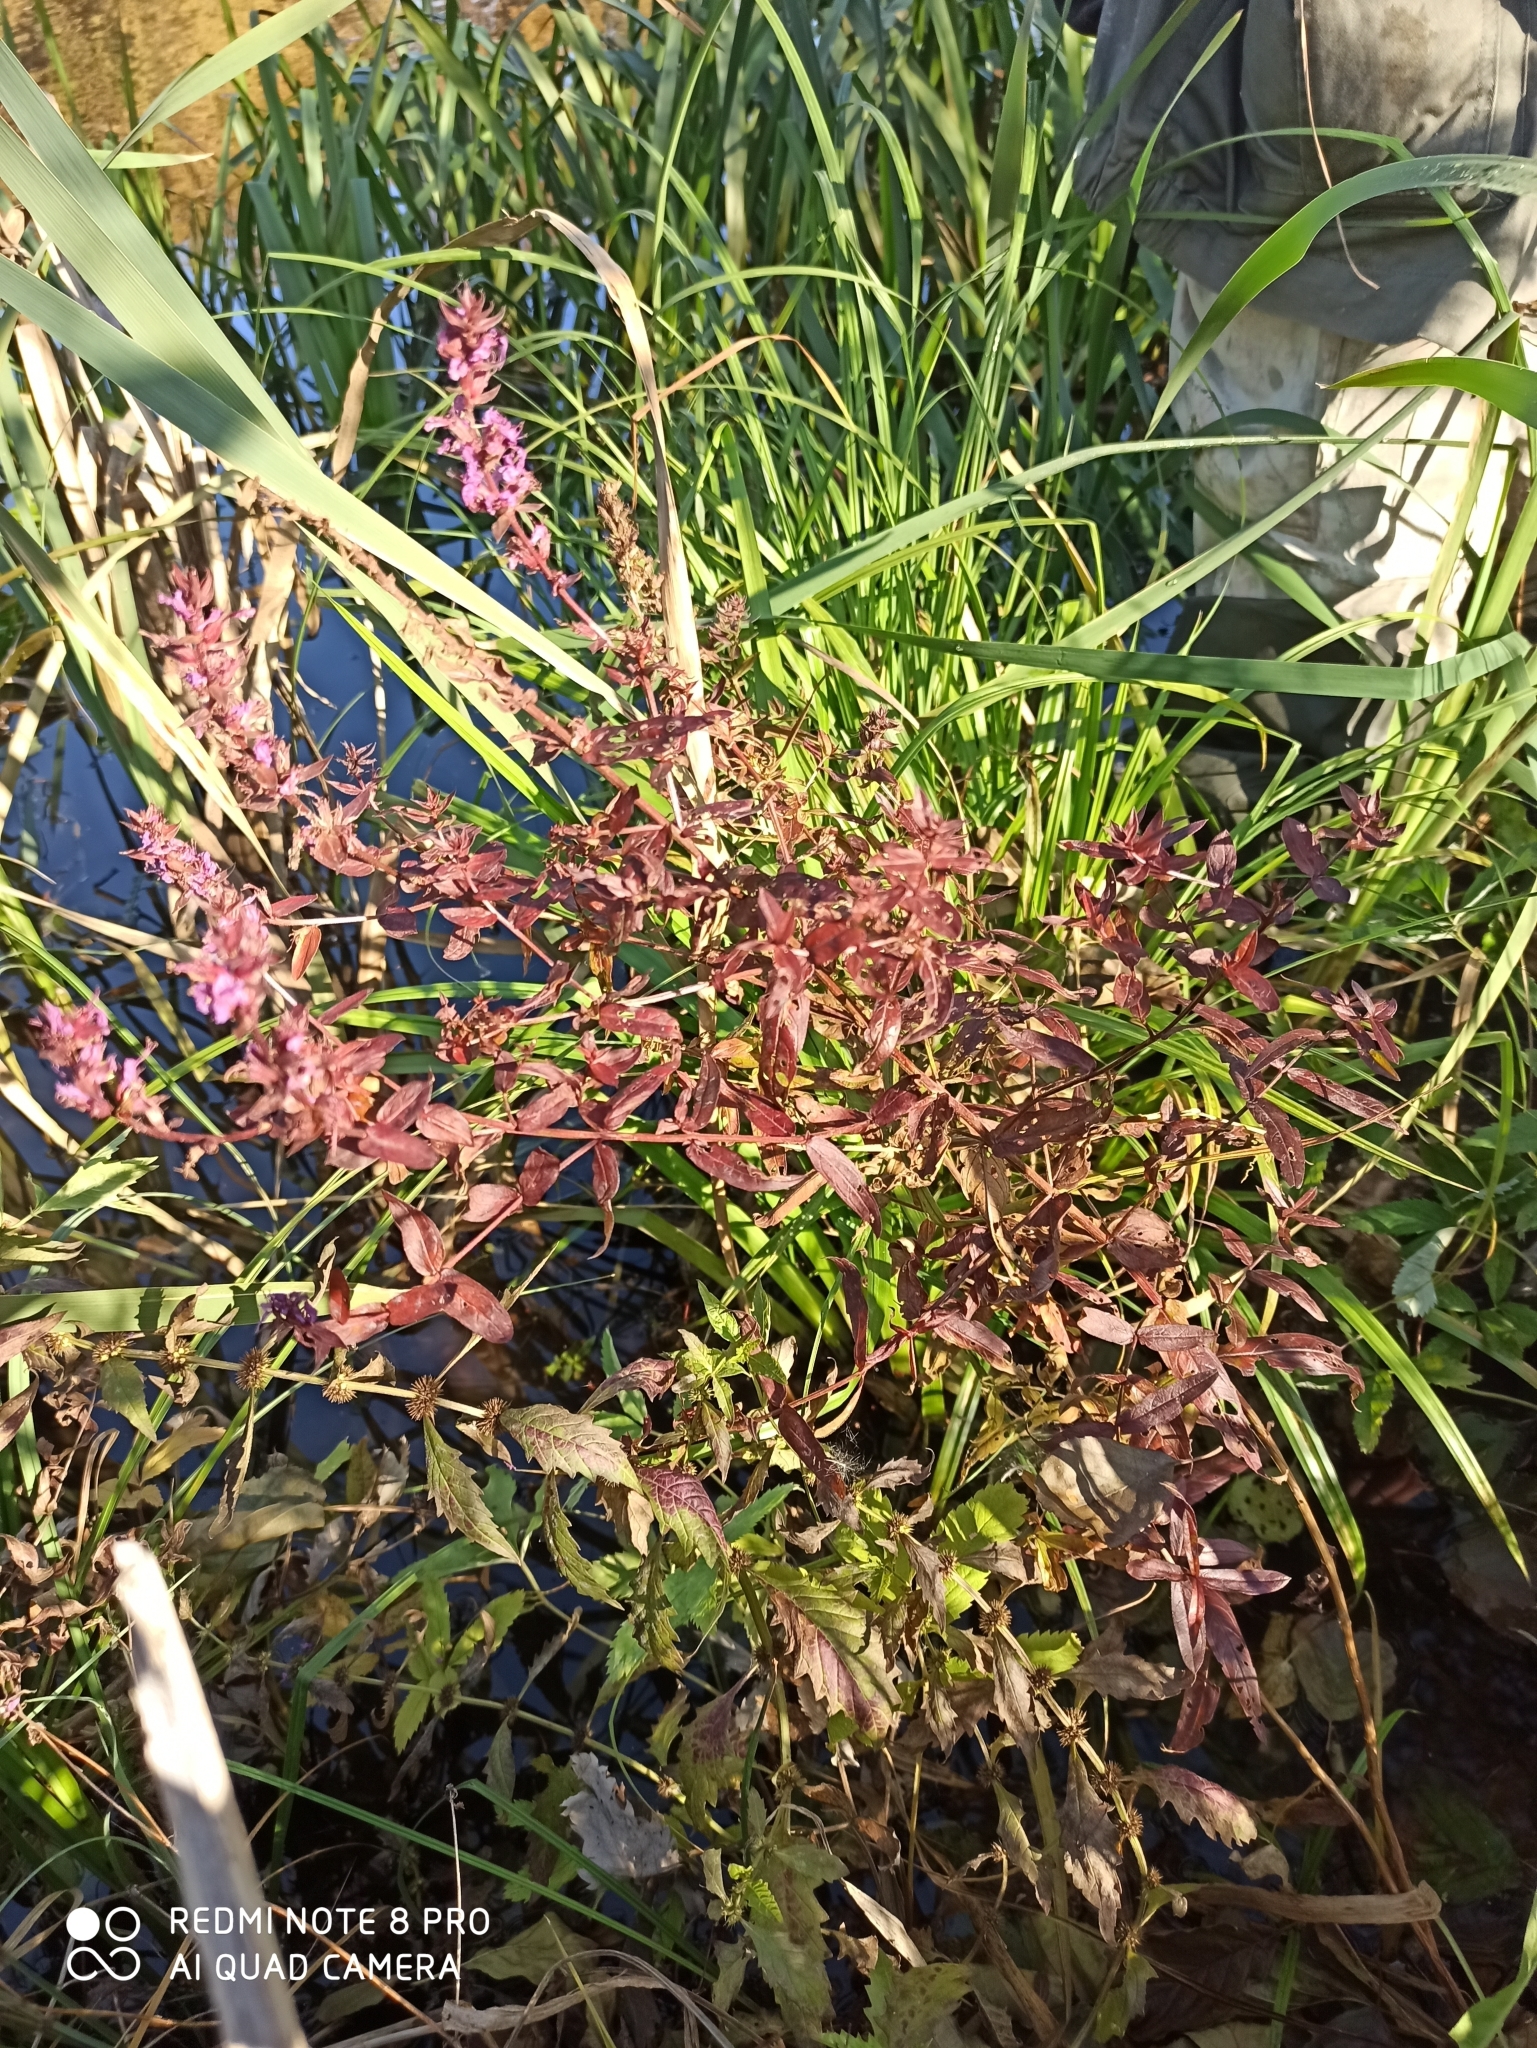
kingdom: Plantae
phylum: Tracheophyta
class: Magnoliopsida
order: Myrtales
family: Lythraceae
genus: Lythrum
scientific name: Lythrum salicaria
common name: Purple loosestrife
